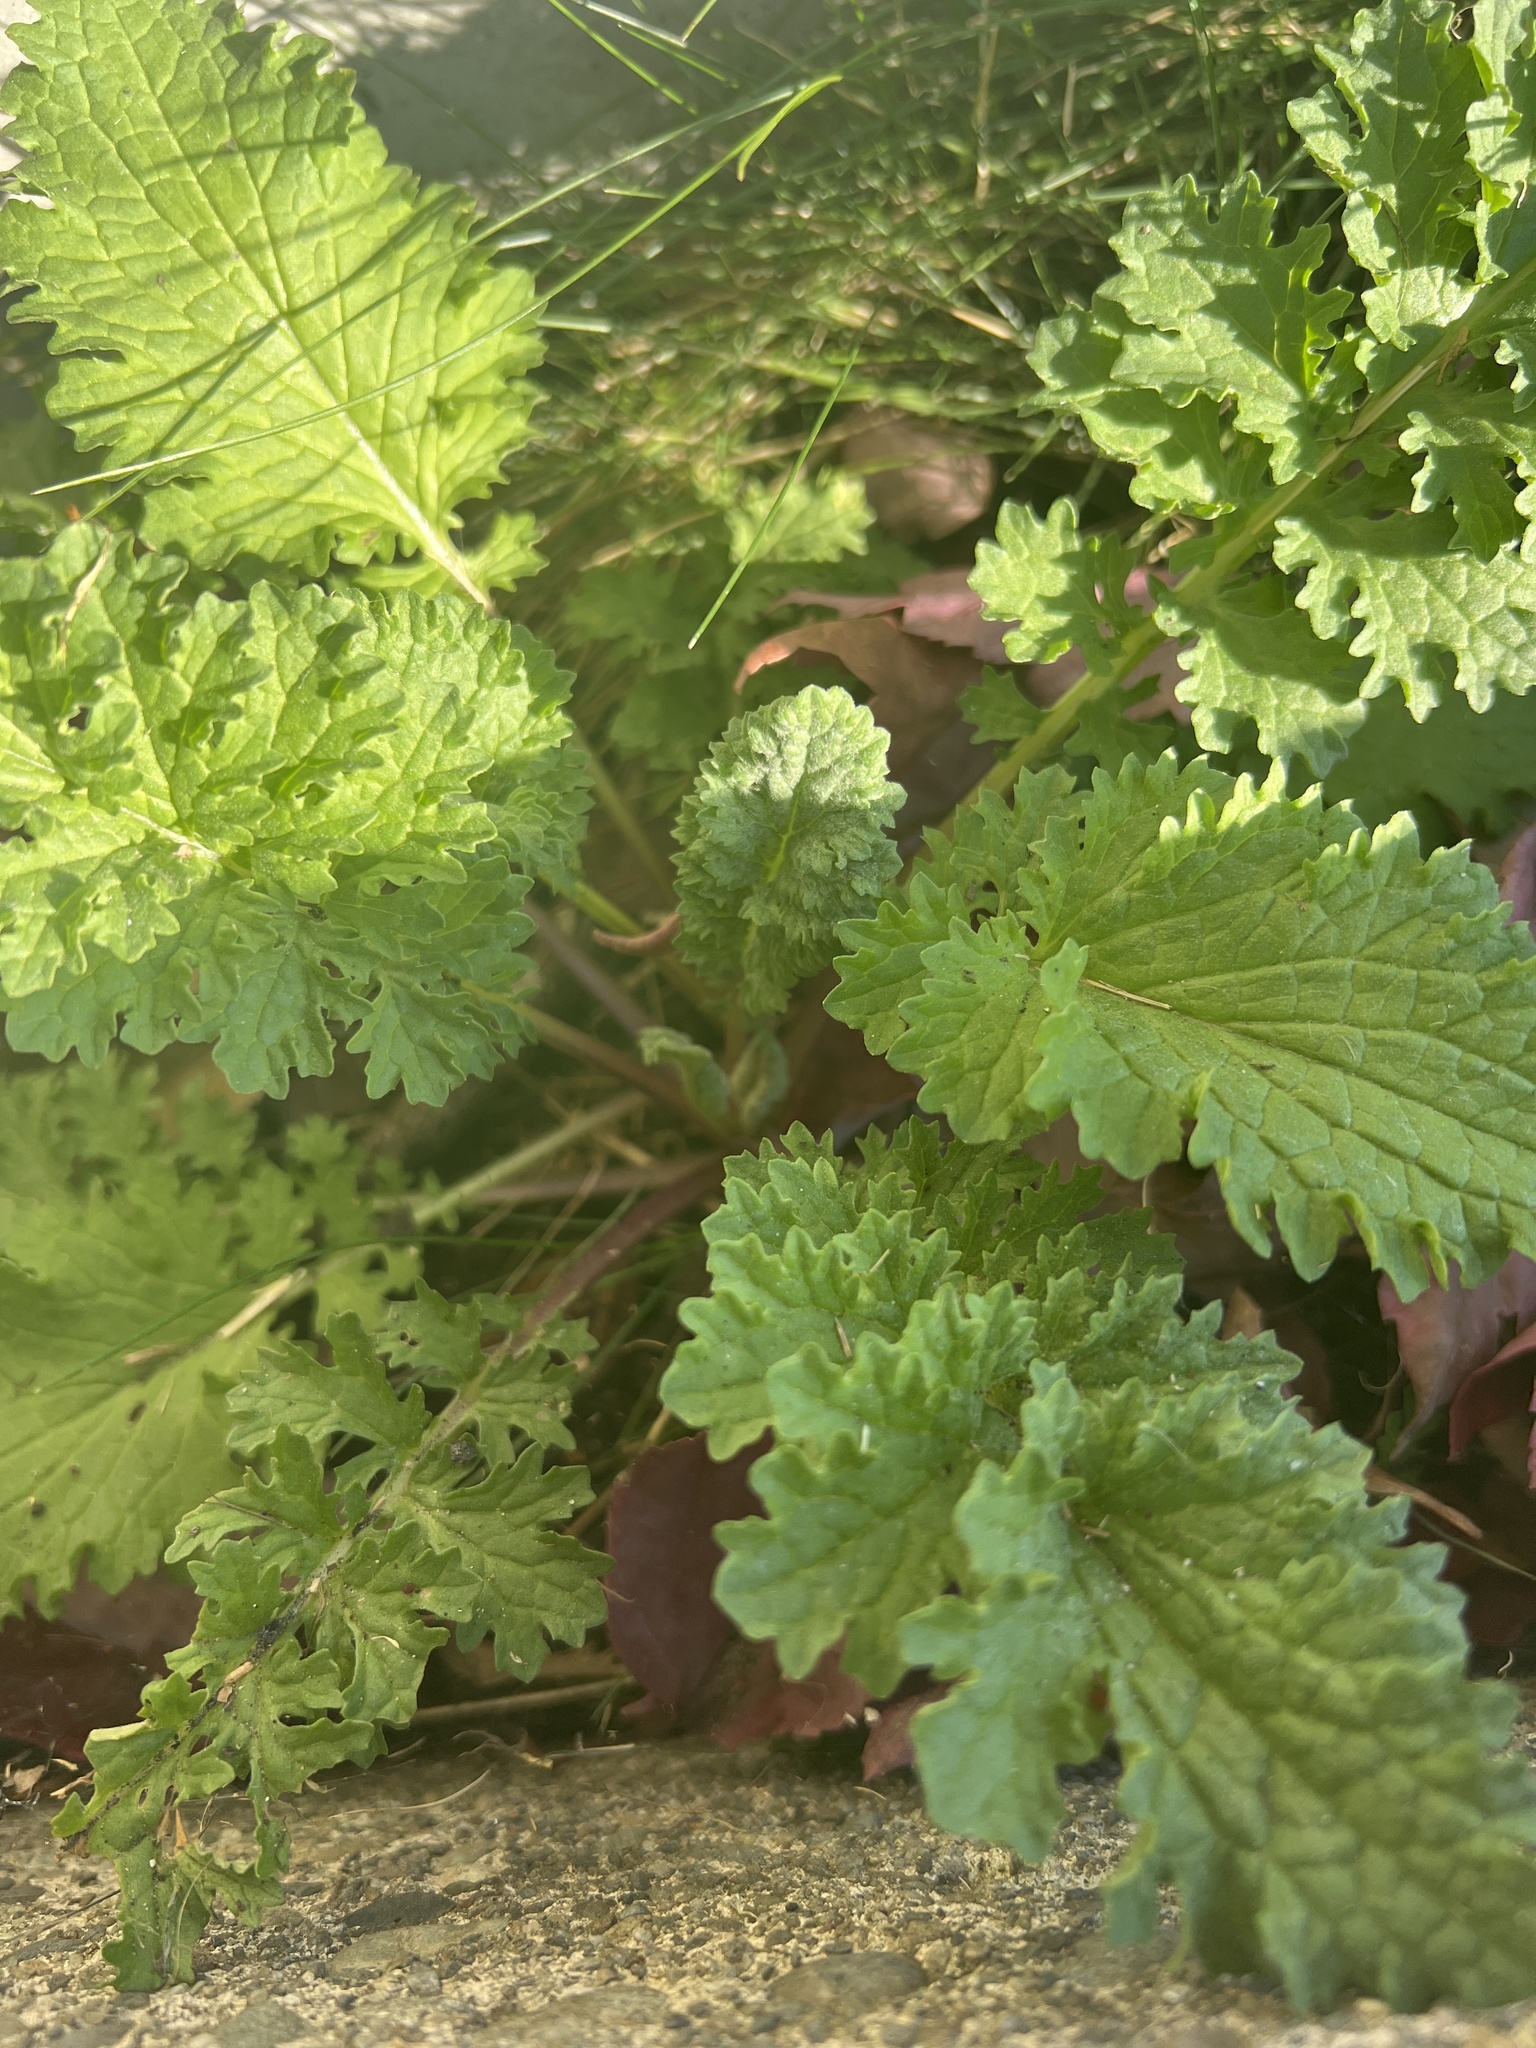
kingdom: Plantae
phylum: Tracheophyta
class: Magnoliopsida
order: Asterales
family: Asteraceae
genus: Jacobaea
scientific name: Jacobaea vulgaris
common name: Stinking willie
